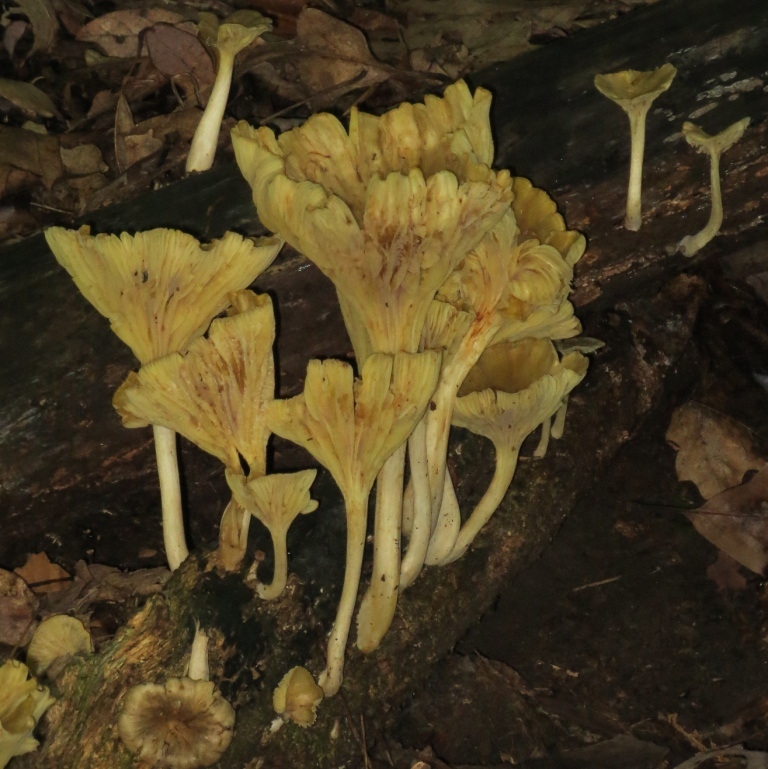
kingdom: Fungi
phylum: Basidiomycota
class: Agaricomycetes
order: Agaricales
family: Marasmiaceae
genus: Gerronema
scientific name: Gerronema strombodes
